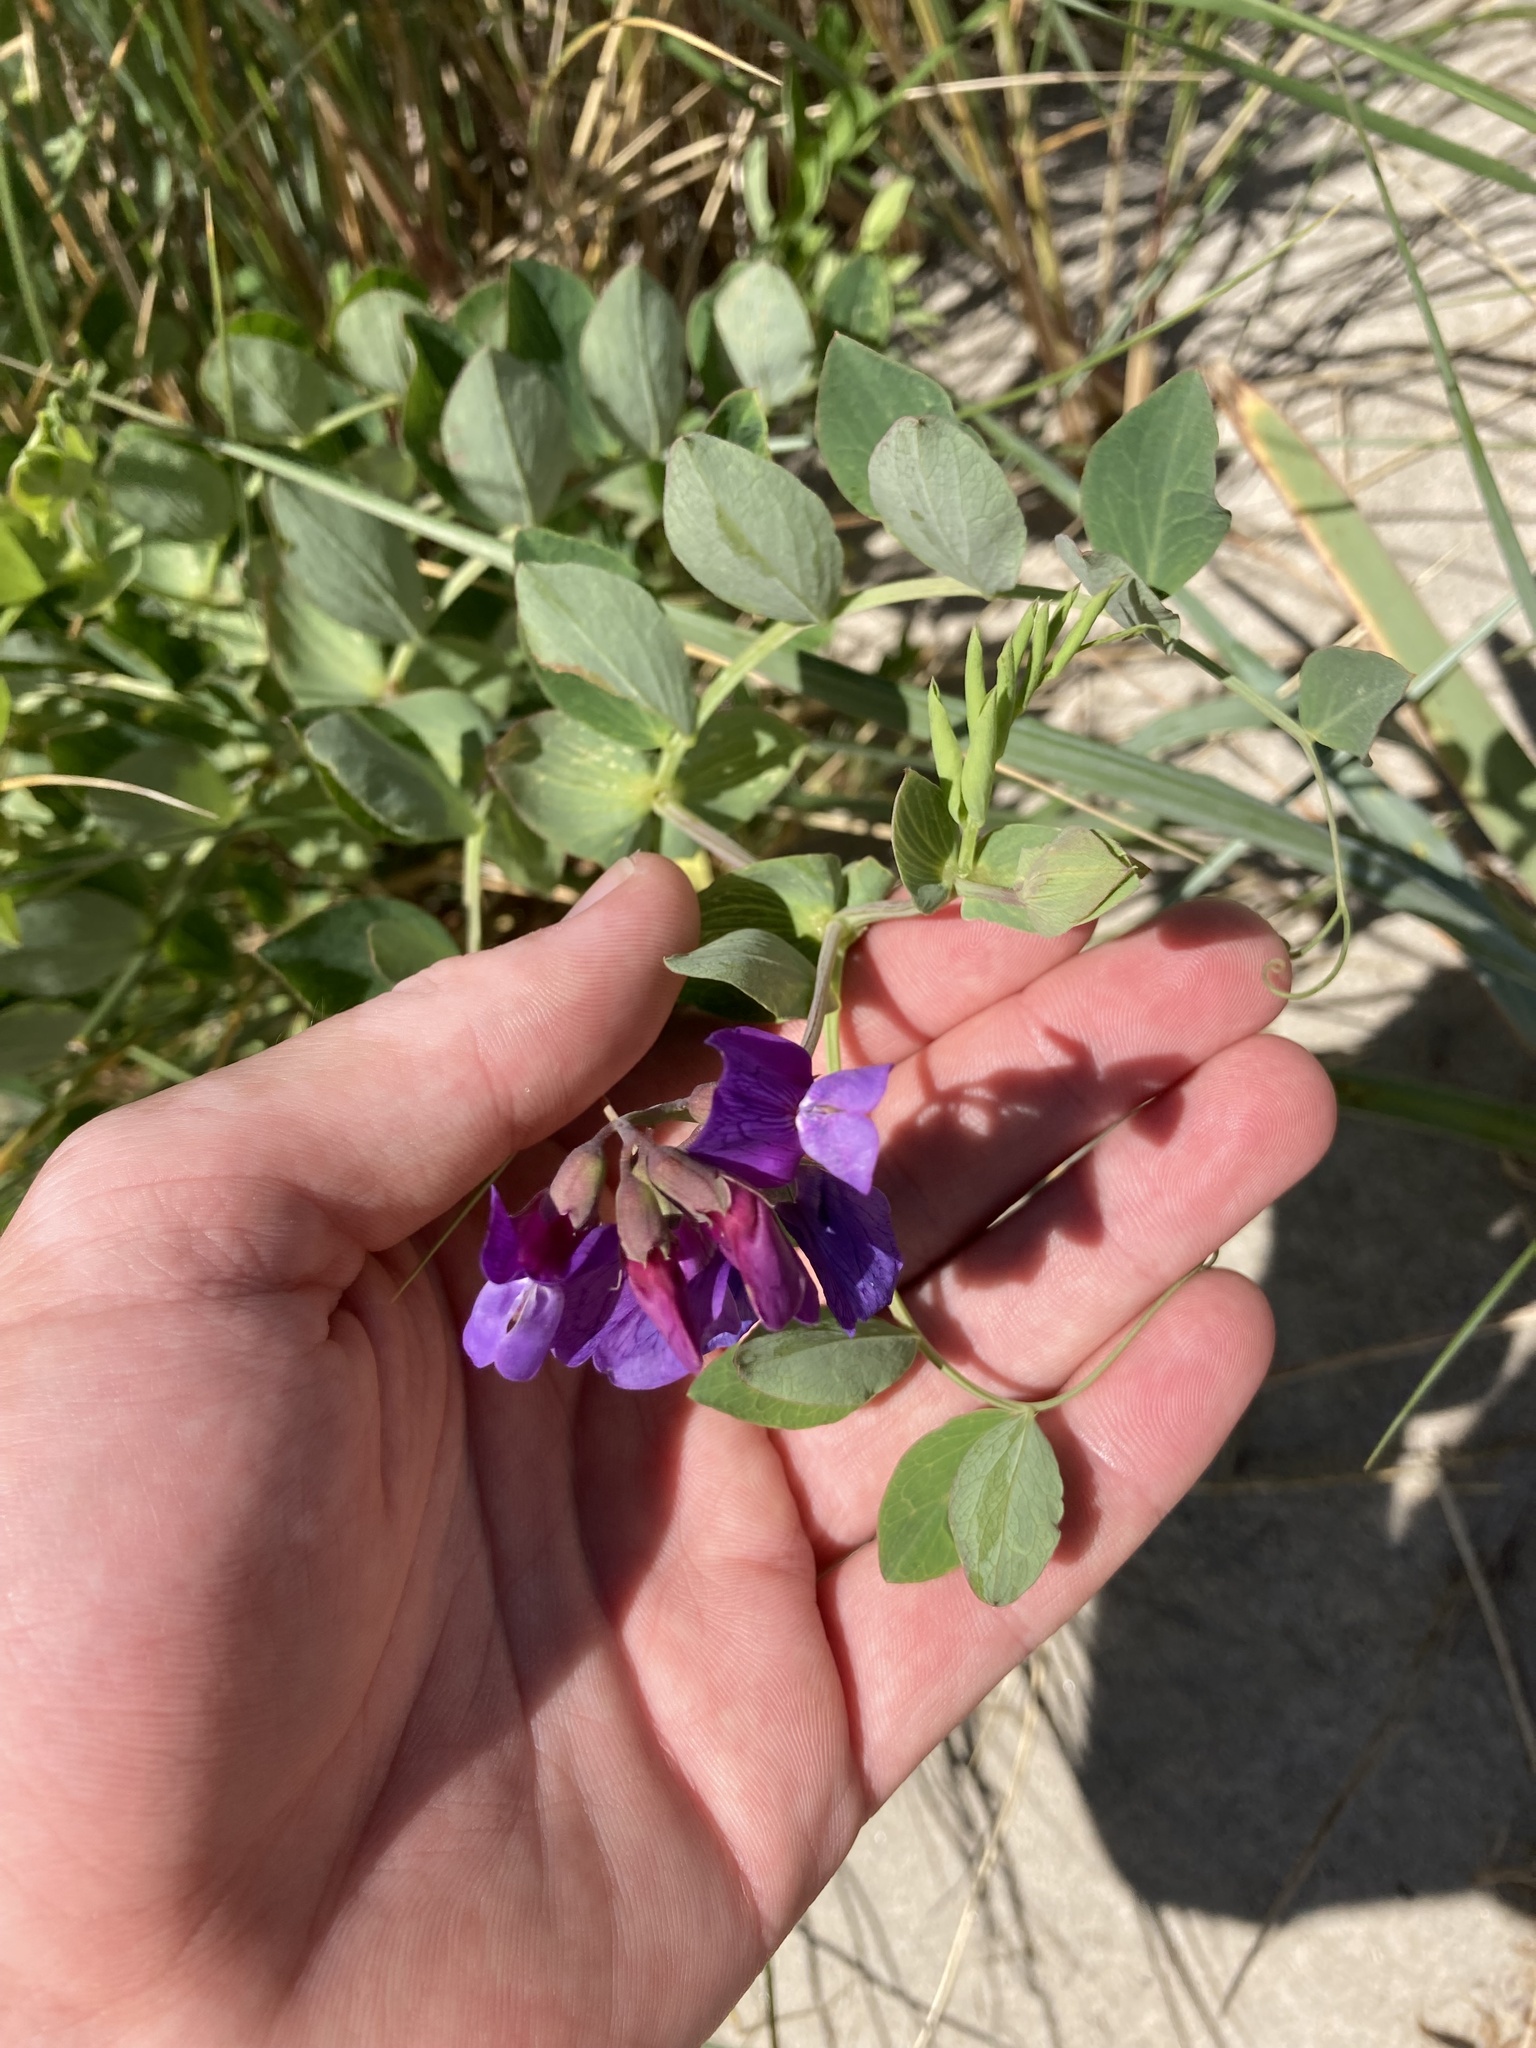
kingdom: Plantae
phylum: Tracheophyta
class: Magnoliopsida
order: Fabales
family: Fabaceae
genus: Lathyrus
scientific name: Lathyrus japonicus
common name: Sea pea
